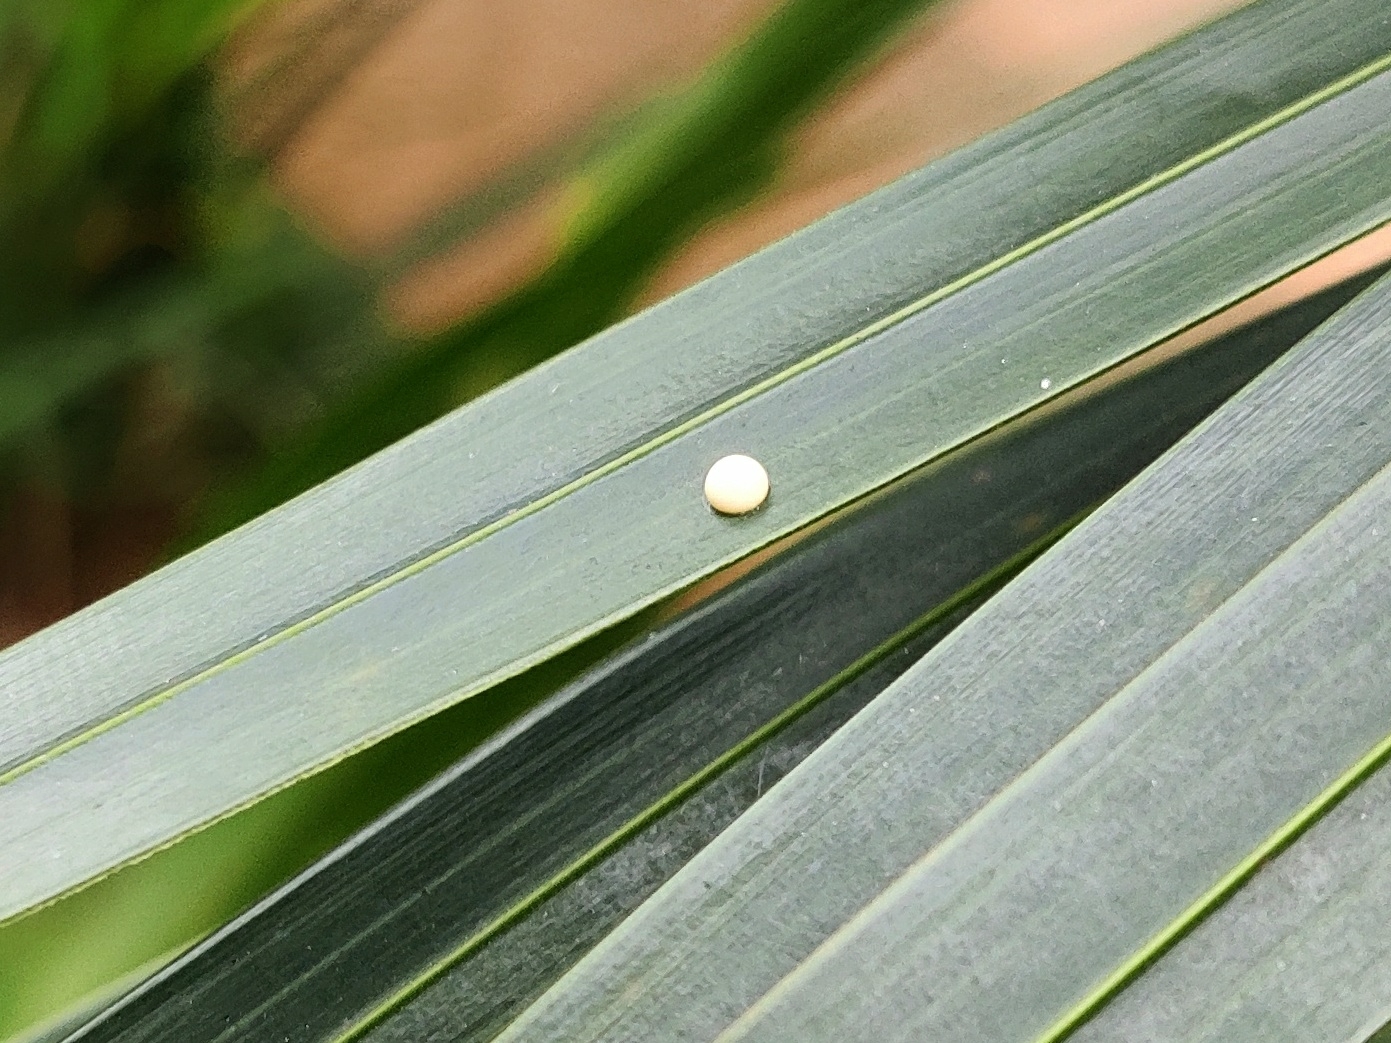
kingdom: Animalia
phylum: Arthropoda
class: Insecta
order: Lepidoptera
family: Hesperiidae
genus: Gangara
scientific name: Gangara thyrsis
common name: Giant redeye
